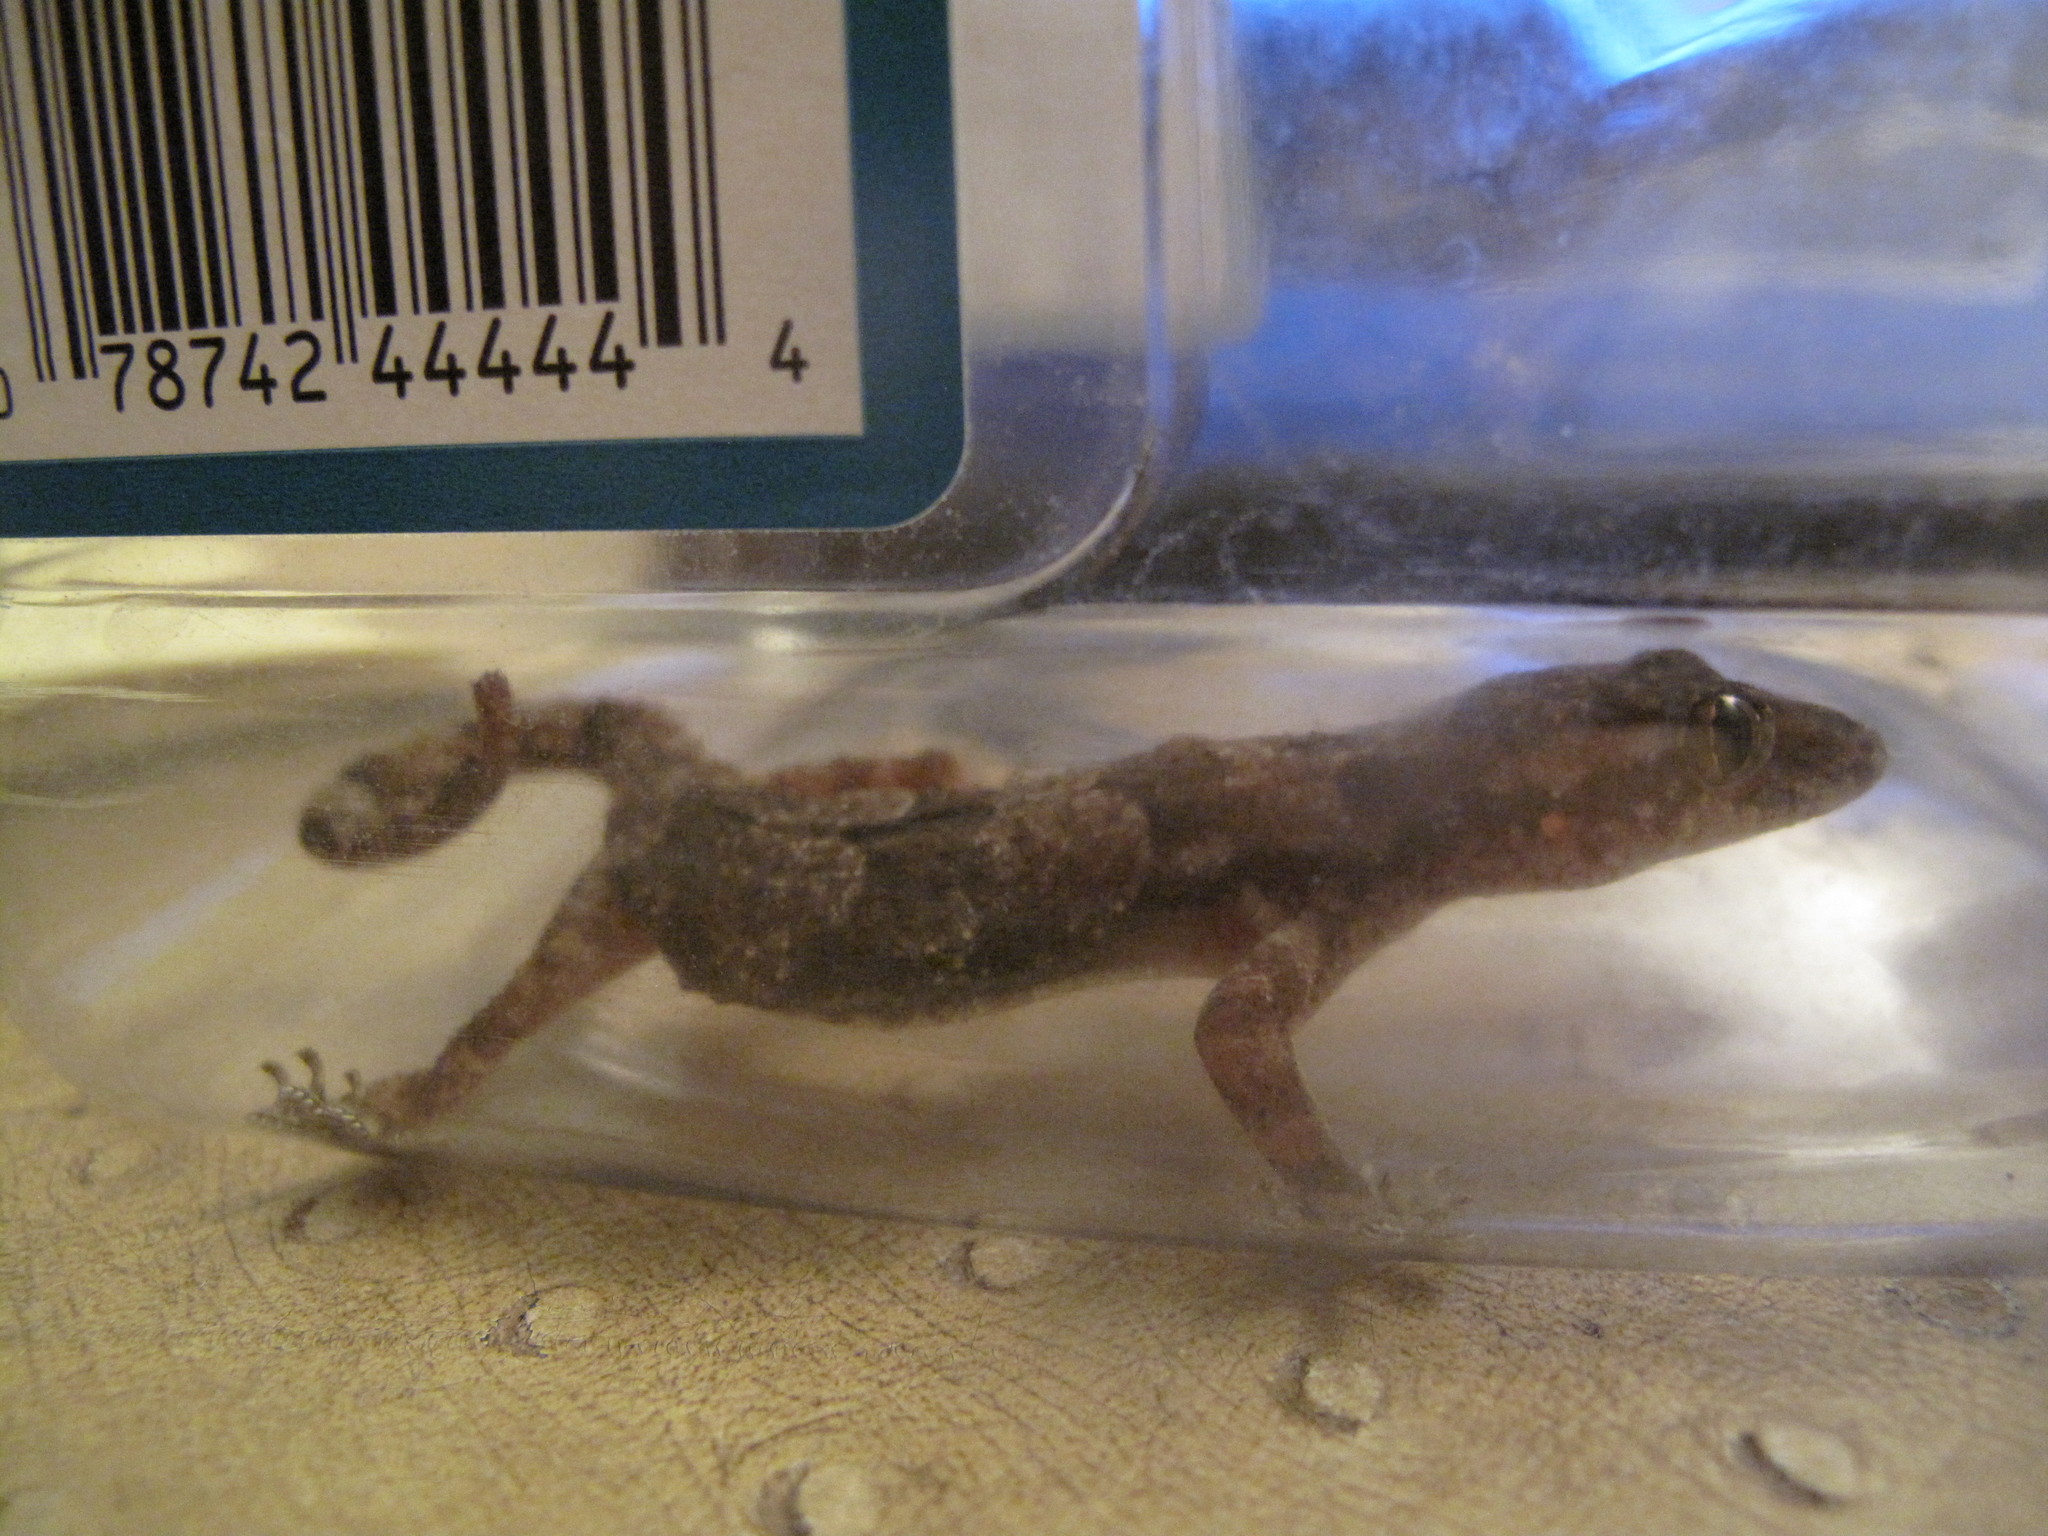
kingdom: Animalia
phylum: Chordata
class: Squamata
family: Gekkonidae
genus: Hemidactylus
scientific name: Hemidactylus mabouia
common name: House gecko
